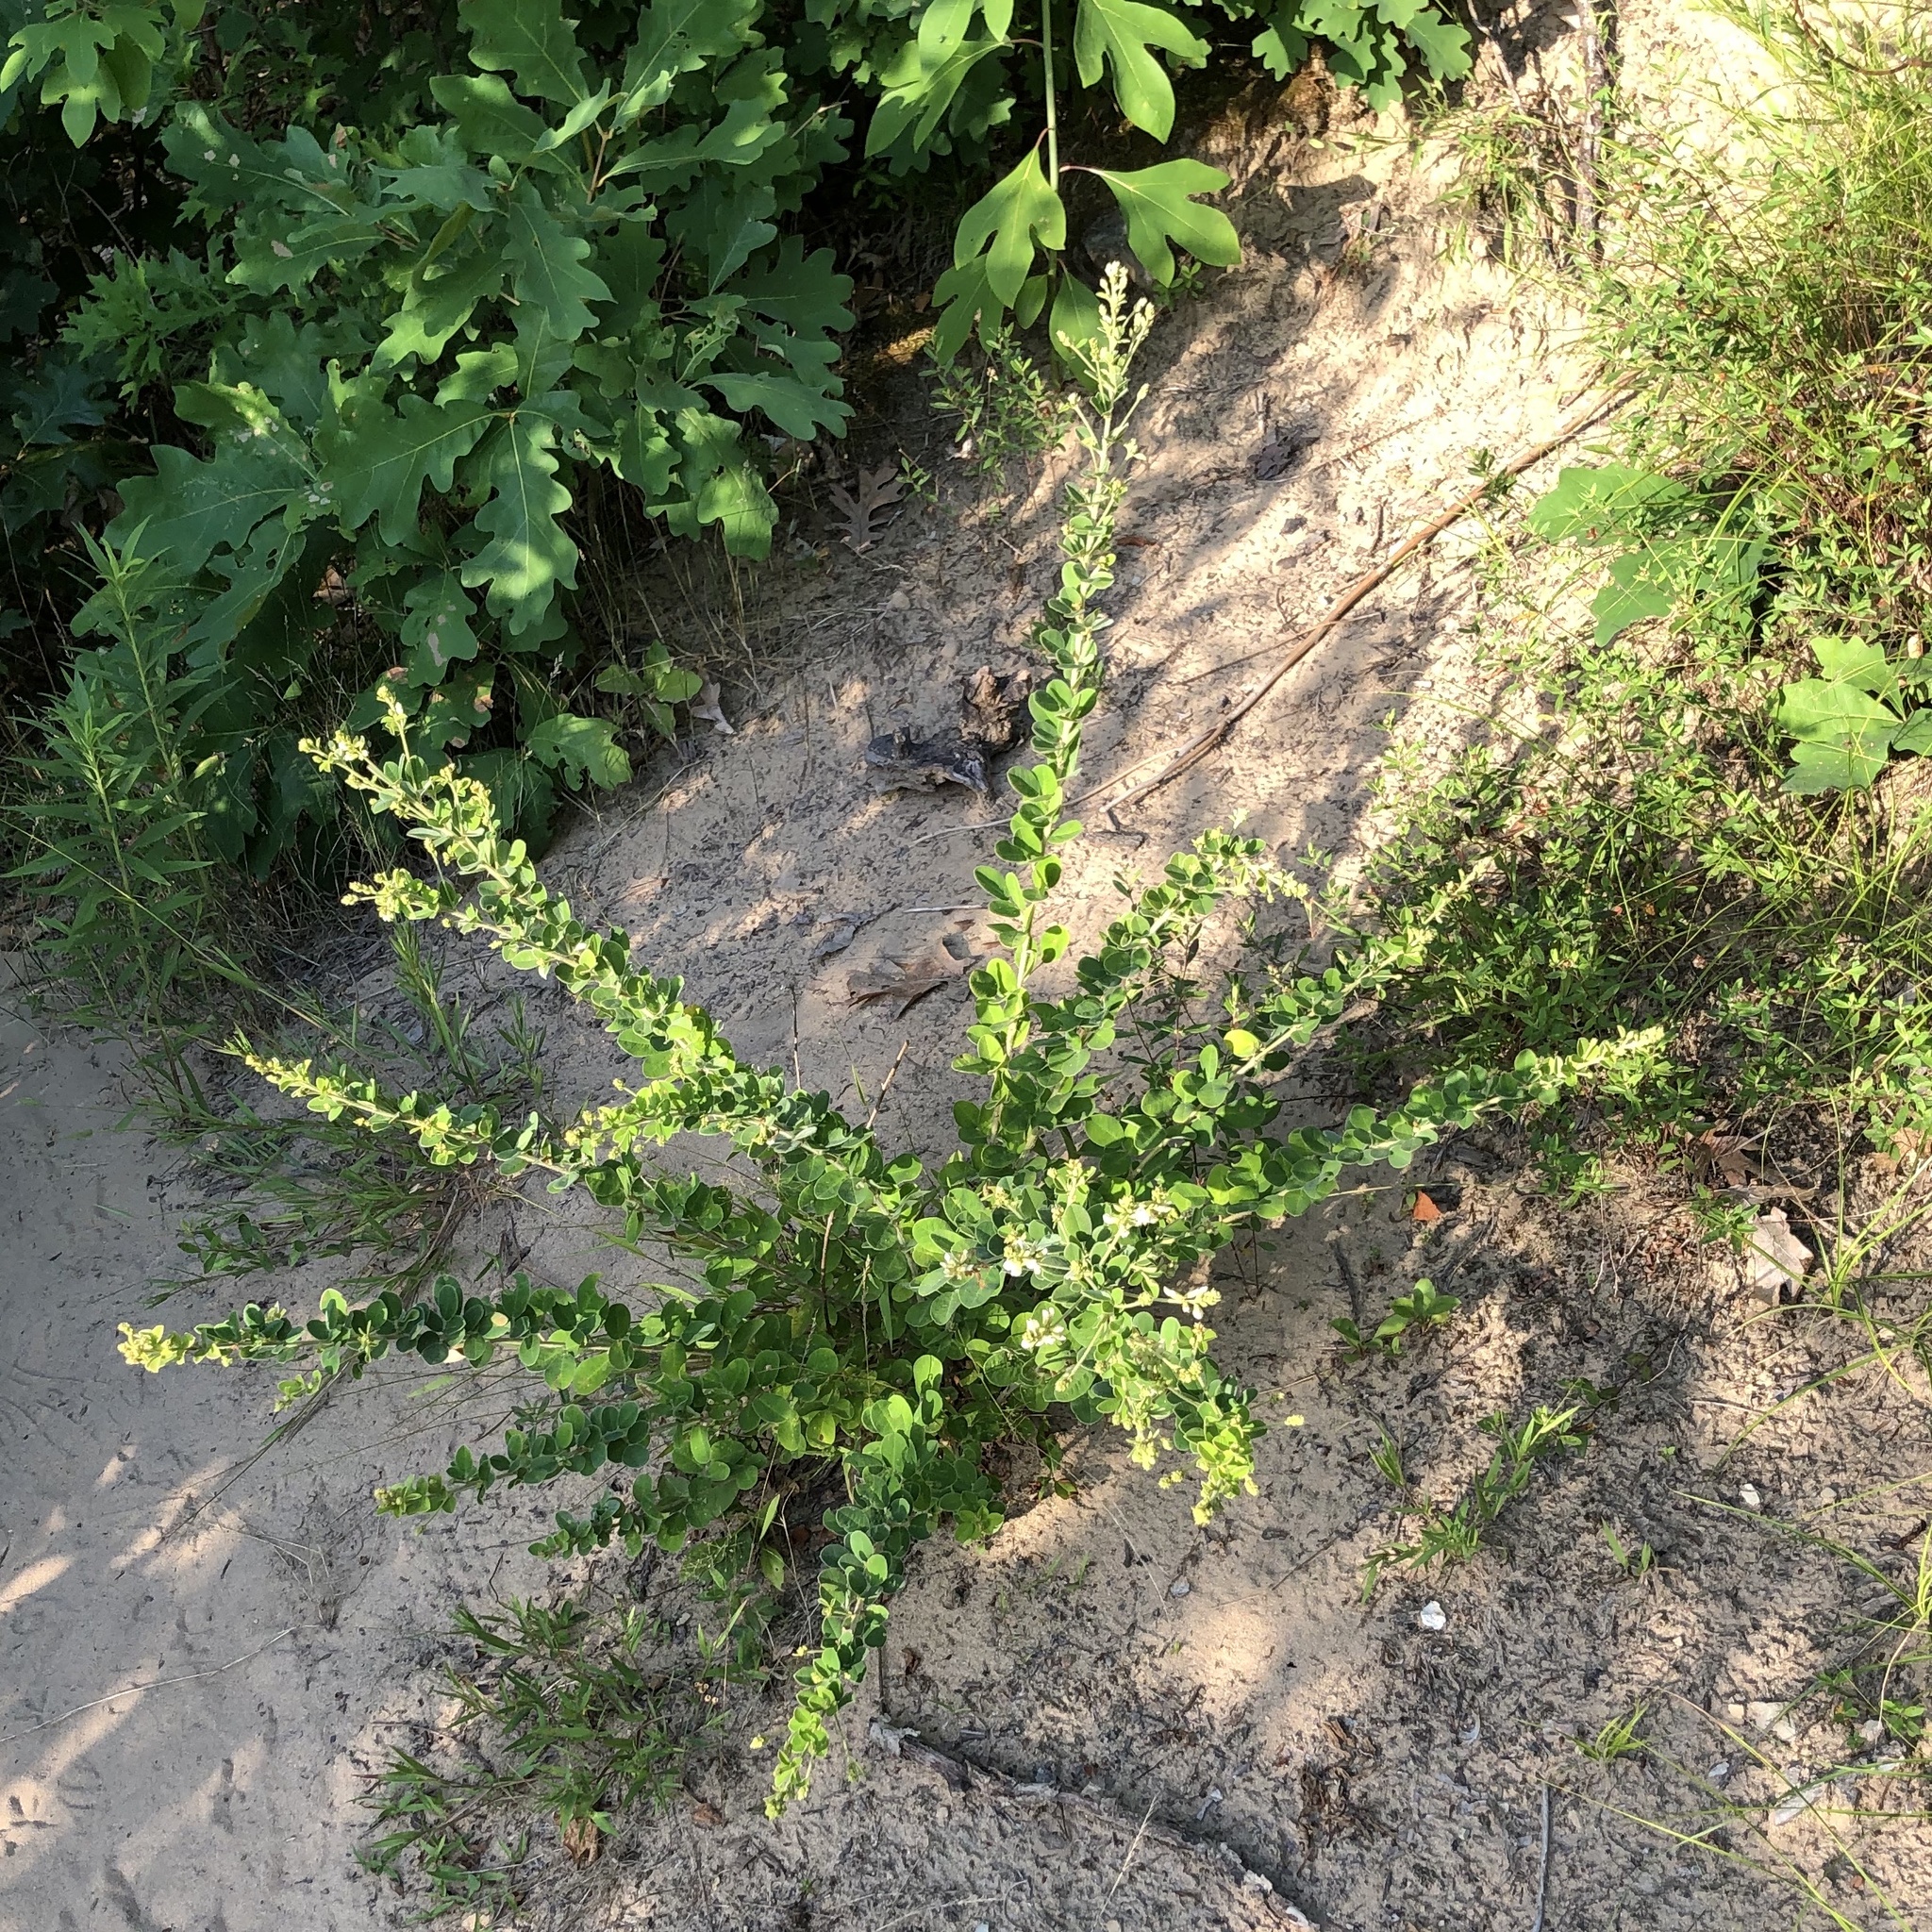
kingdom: Plantae
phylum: Tracheophyta
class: Magnoliopsida
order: Fabales
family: Fabaceae
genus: Lespedeza
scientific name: Lespedeza hirta
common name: Hairy lespedeza
